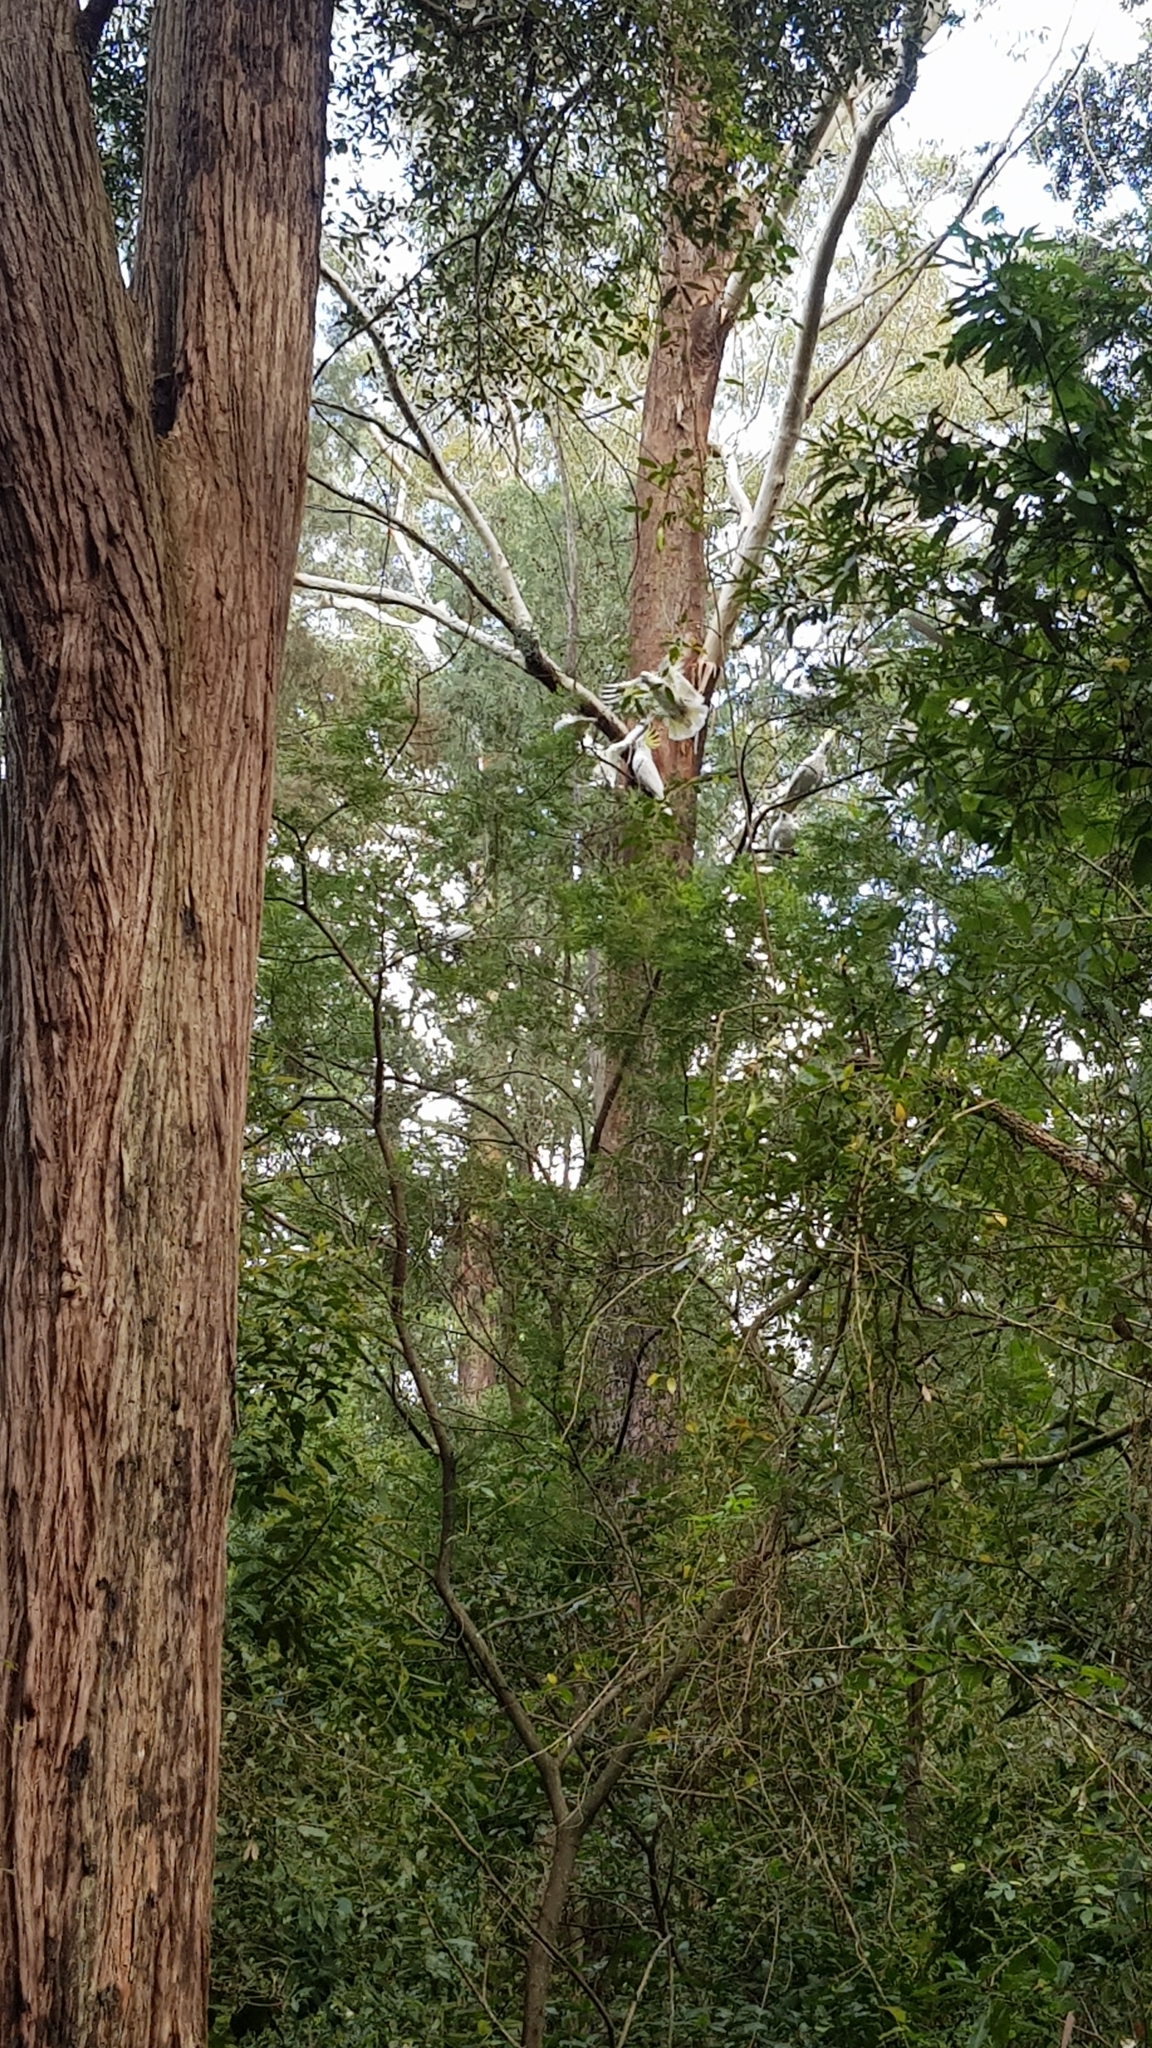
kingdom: Animalia
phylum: Chordata
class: Aves
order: Psittaciformes
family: Psittacidae
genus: Cacatua
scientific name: Cacatua galerita
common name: Sulphur-crested cockatoo
